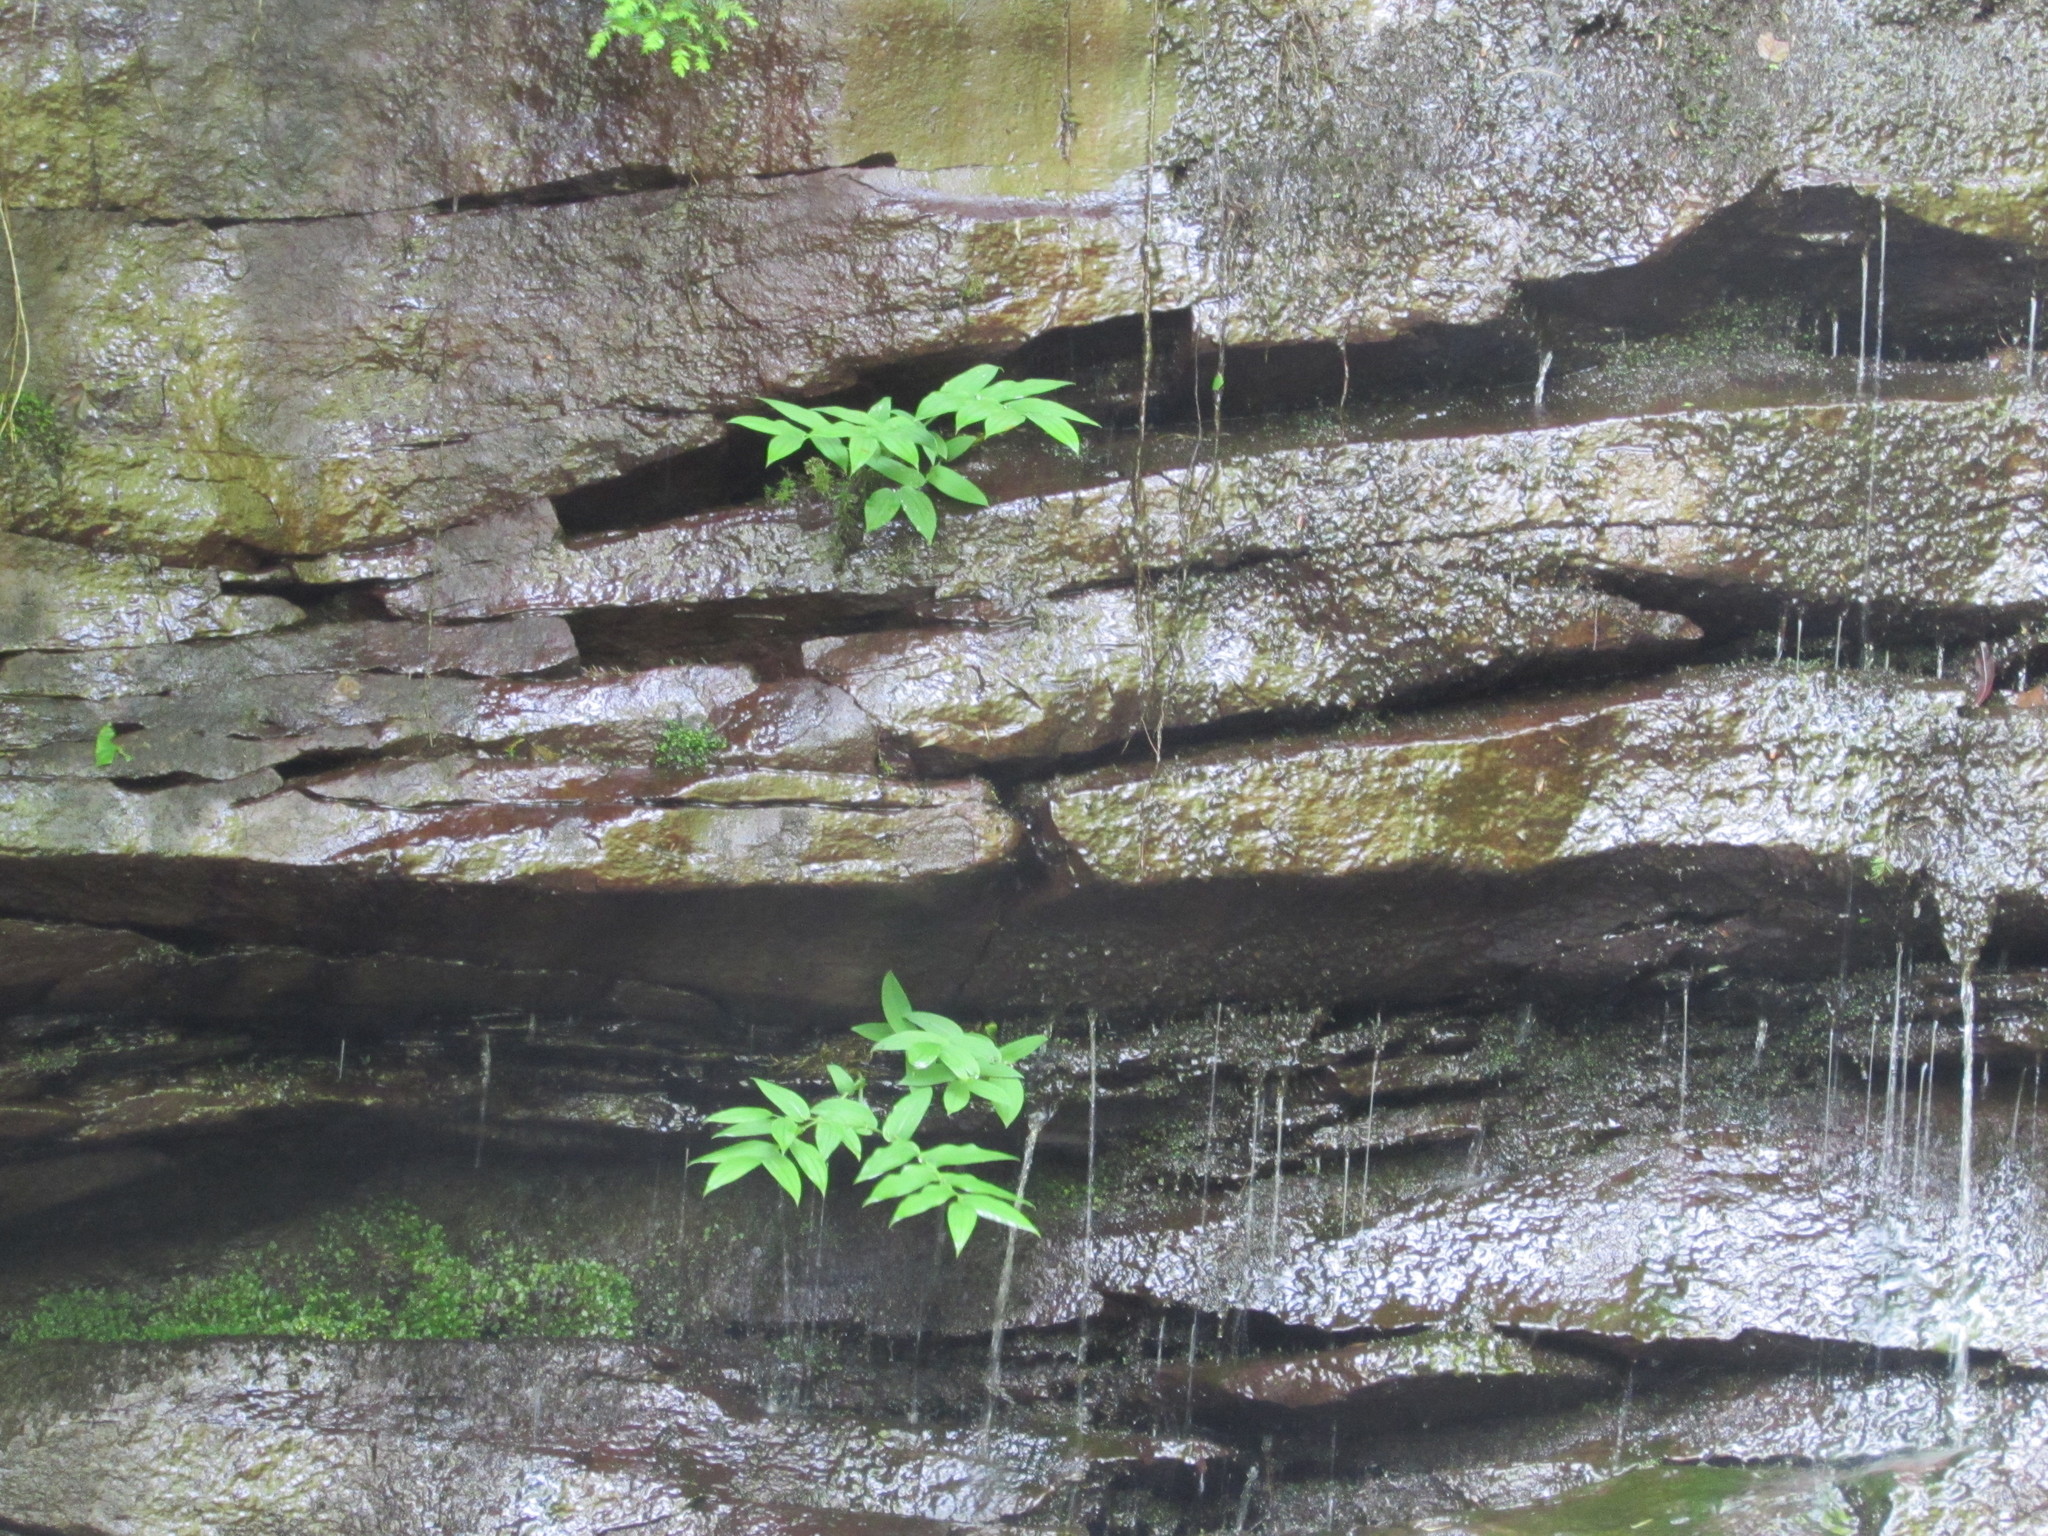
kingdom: Plantae
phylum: Tracheophyta
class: Liliopsida
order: Liliales
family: Liliaceae
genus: Streptopus
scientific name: Streptopus amplexifolius
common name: Clasp twisted stalk
